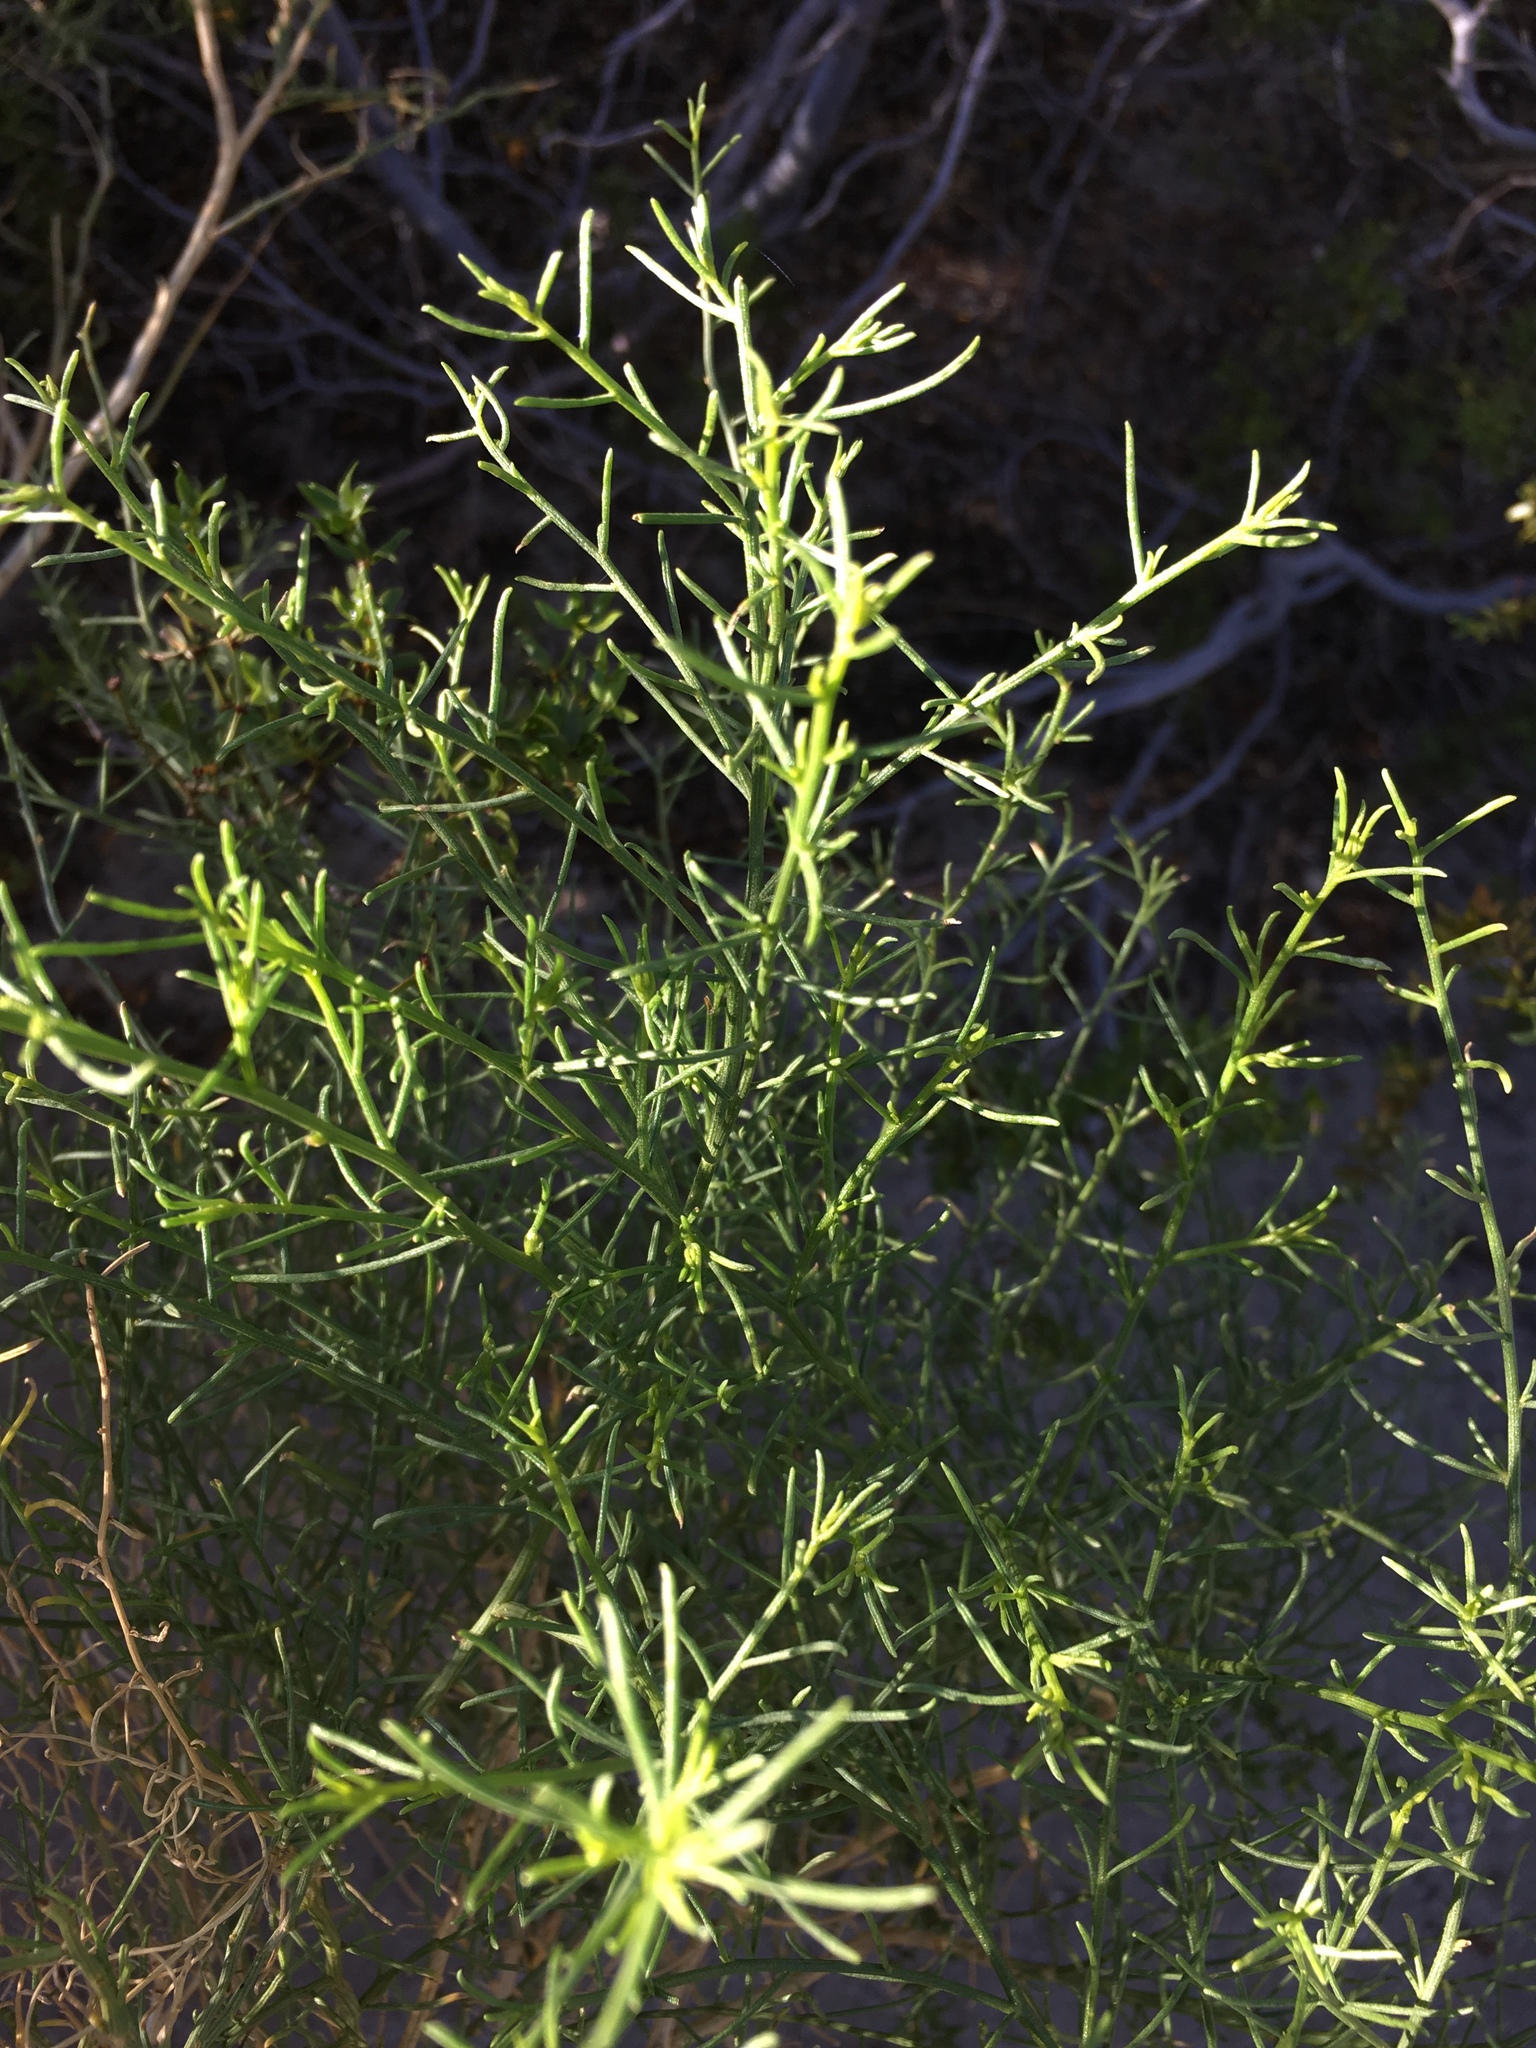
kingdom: Plantae
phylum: Tracheophyta
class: Magnoliopsida
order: Asterales
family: Asteraceae
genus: Ambrosia
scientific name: Ambrosia salsola
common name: Burrobrush
